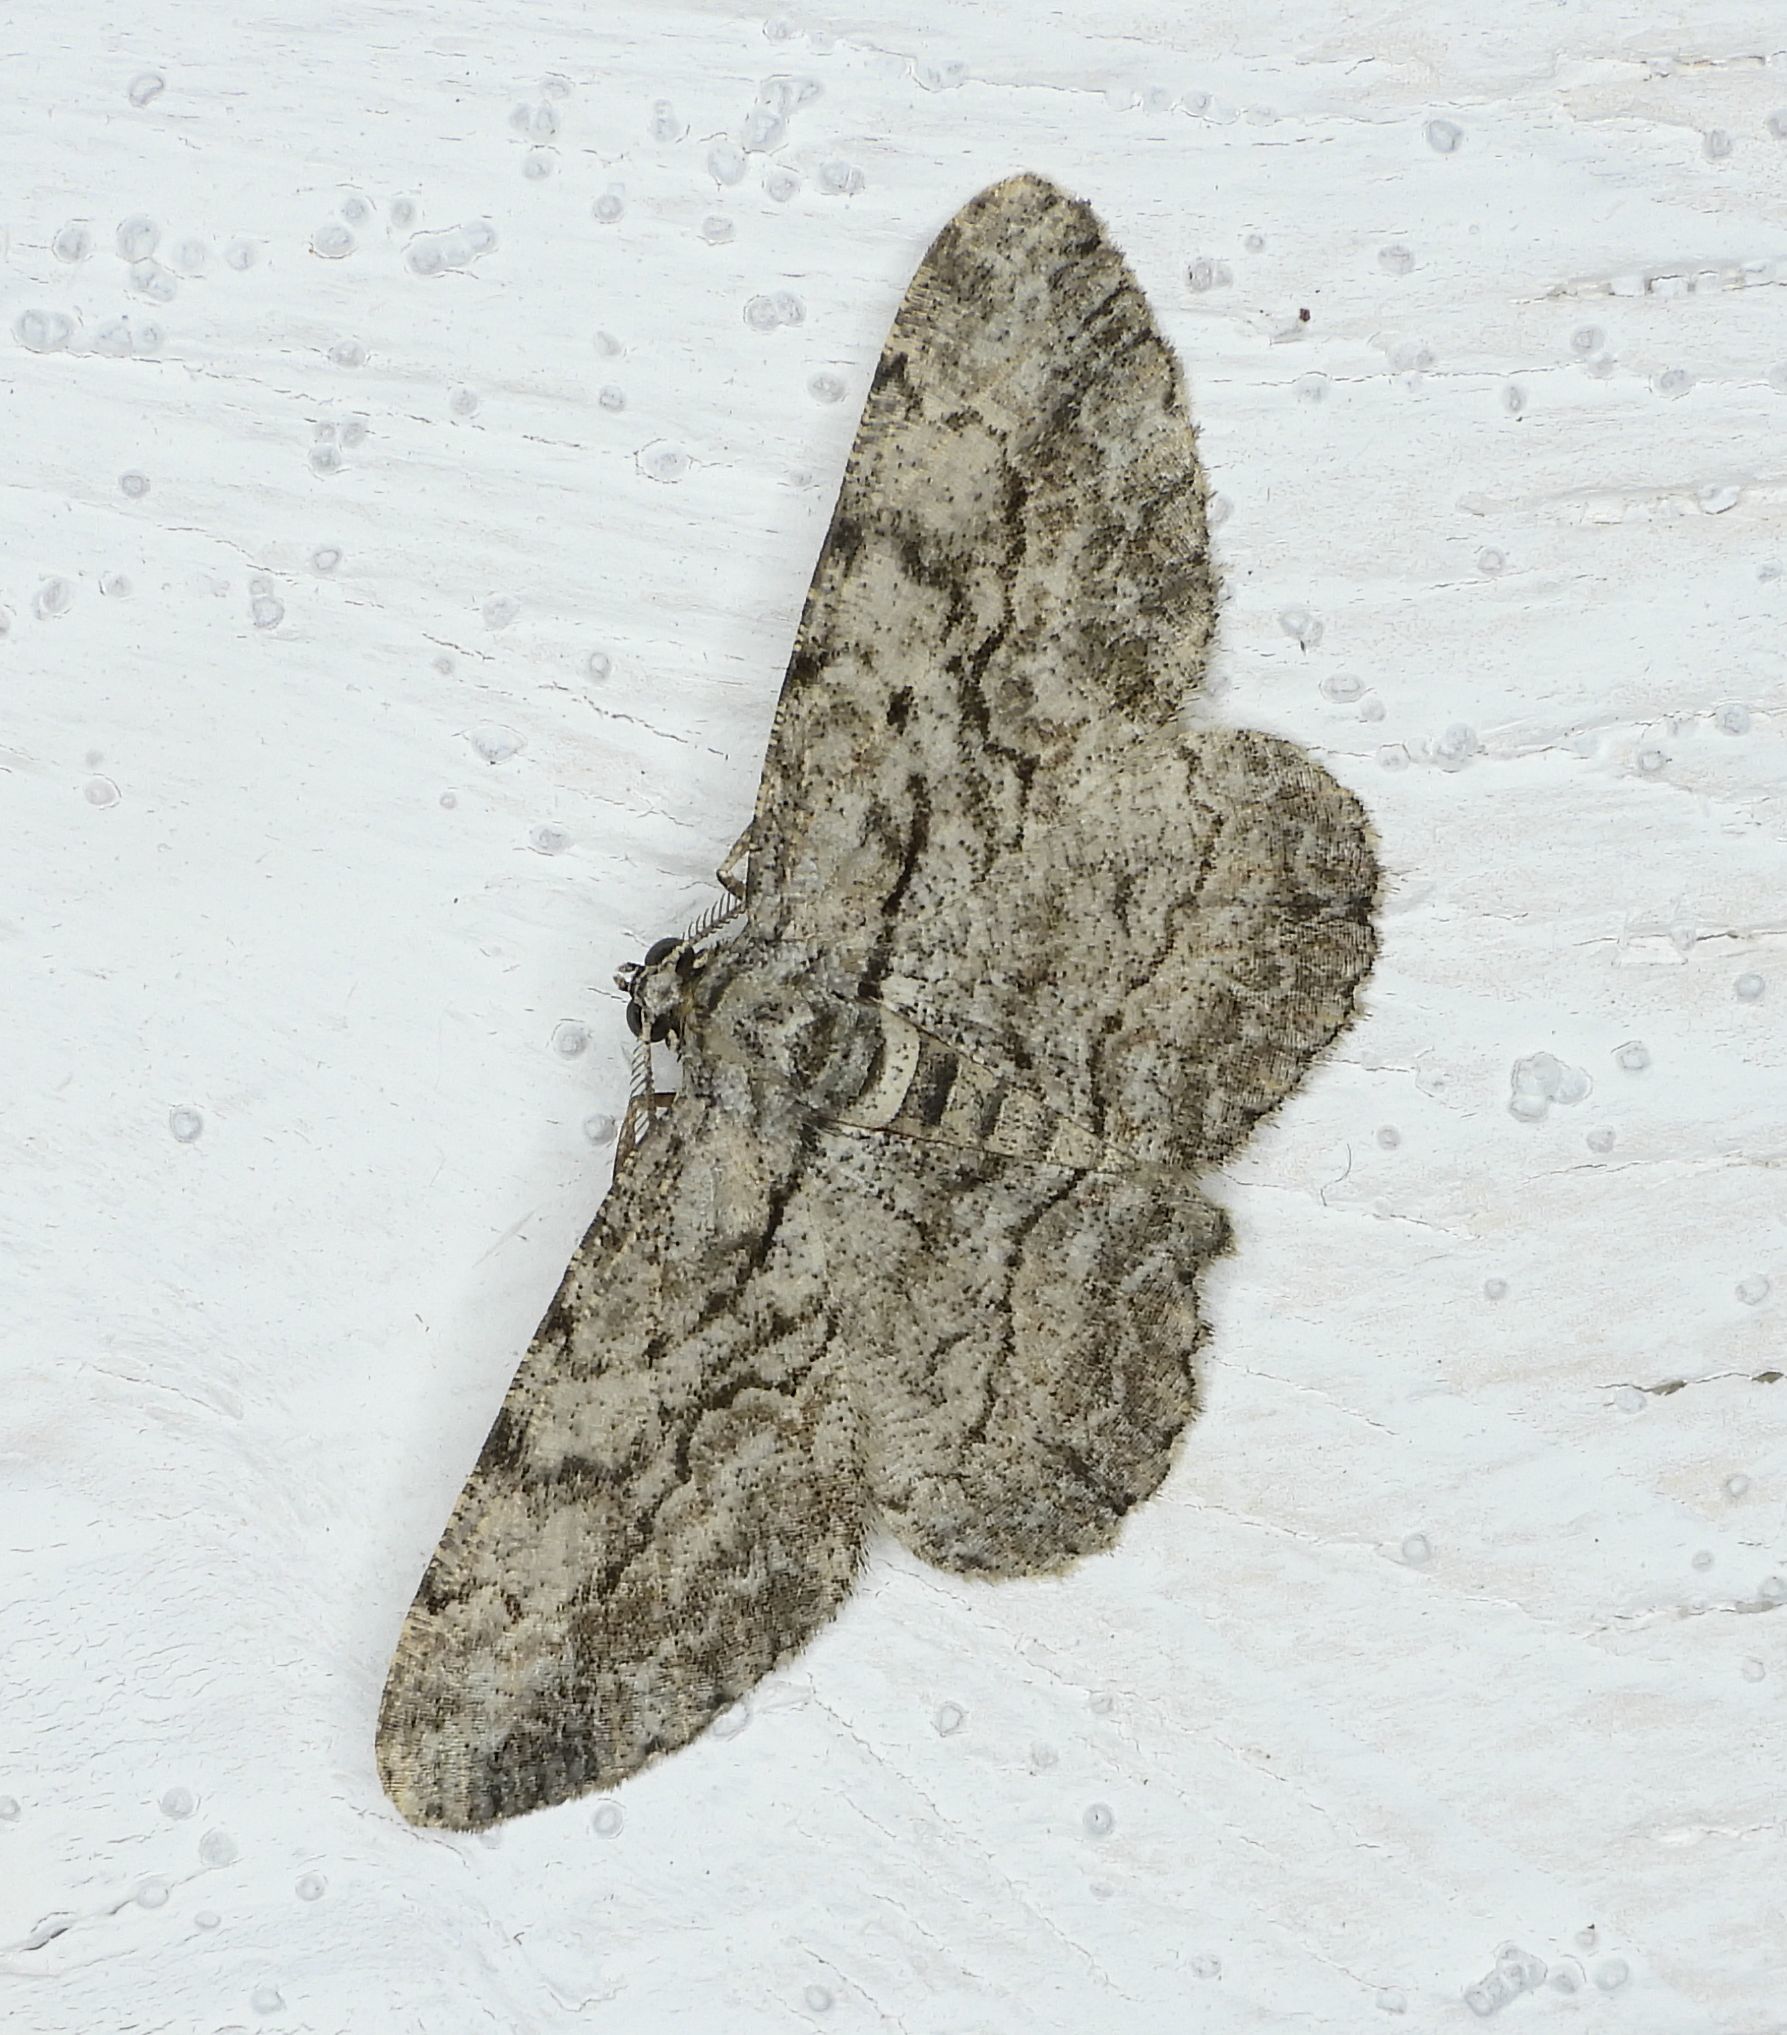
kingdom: Animalia
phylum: Arthropoda
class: Insecta
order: Lepidoptera
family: Geometridae
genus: Anavitrinella
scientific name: Anavitrinella pampinaria
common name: Common gray
